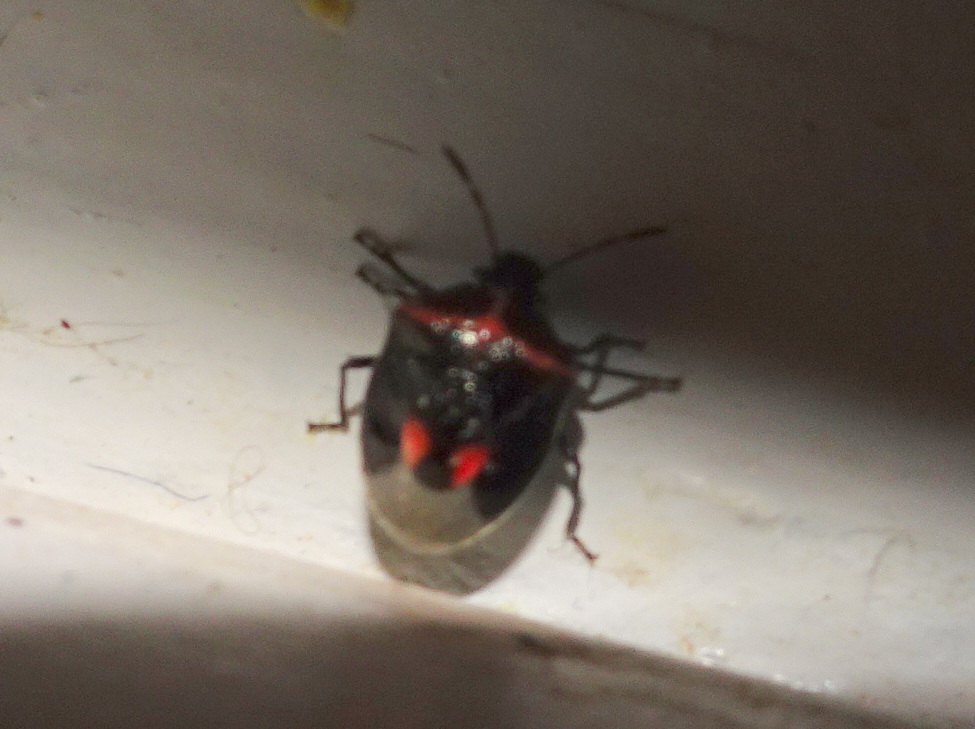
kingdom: Animalia
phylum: Arthropoda
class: Insecta
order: Hemiptera
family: Pentatomidae
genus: Cosmopepla
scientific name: Cosmopepla lintneriana
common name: Twice-stabbed stink bug
